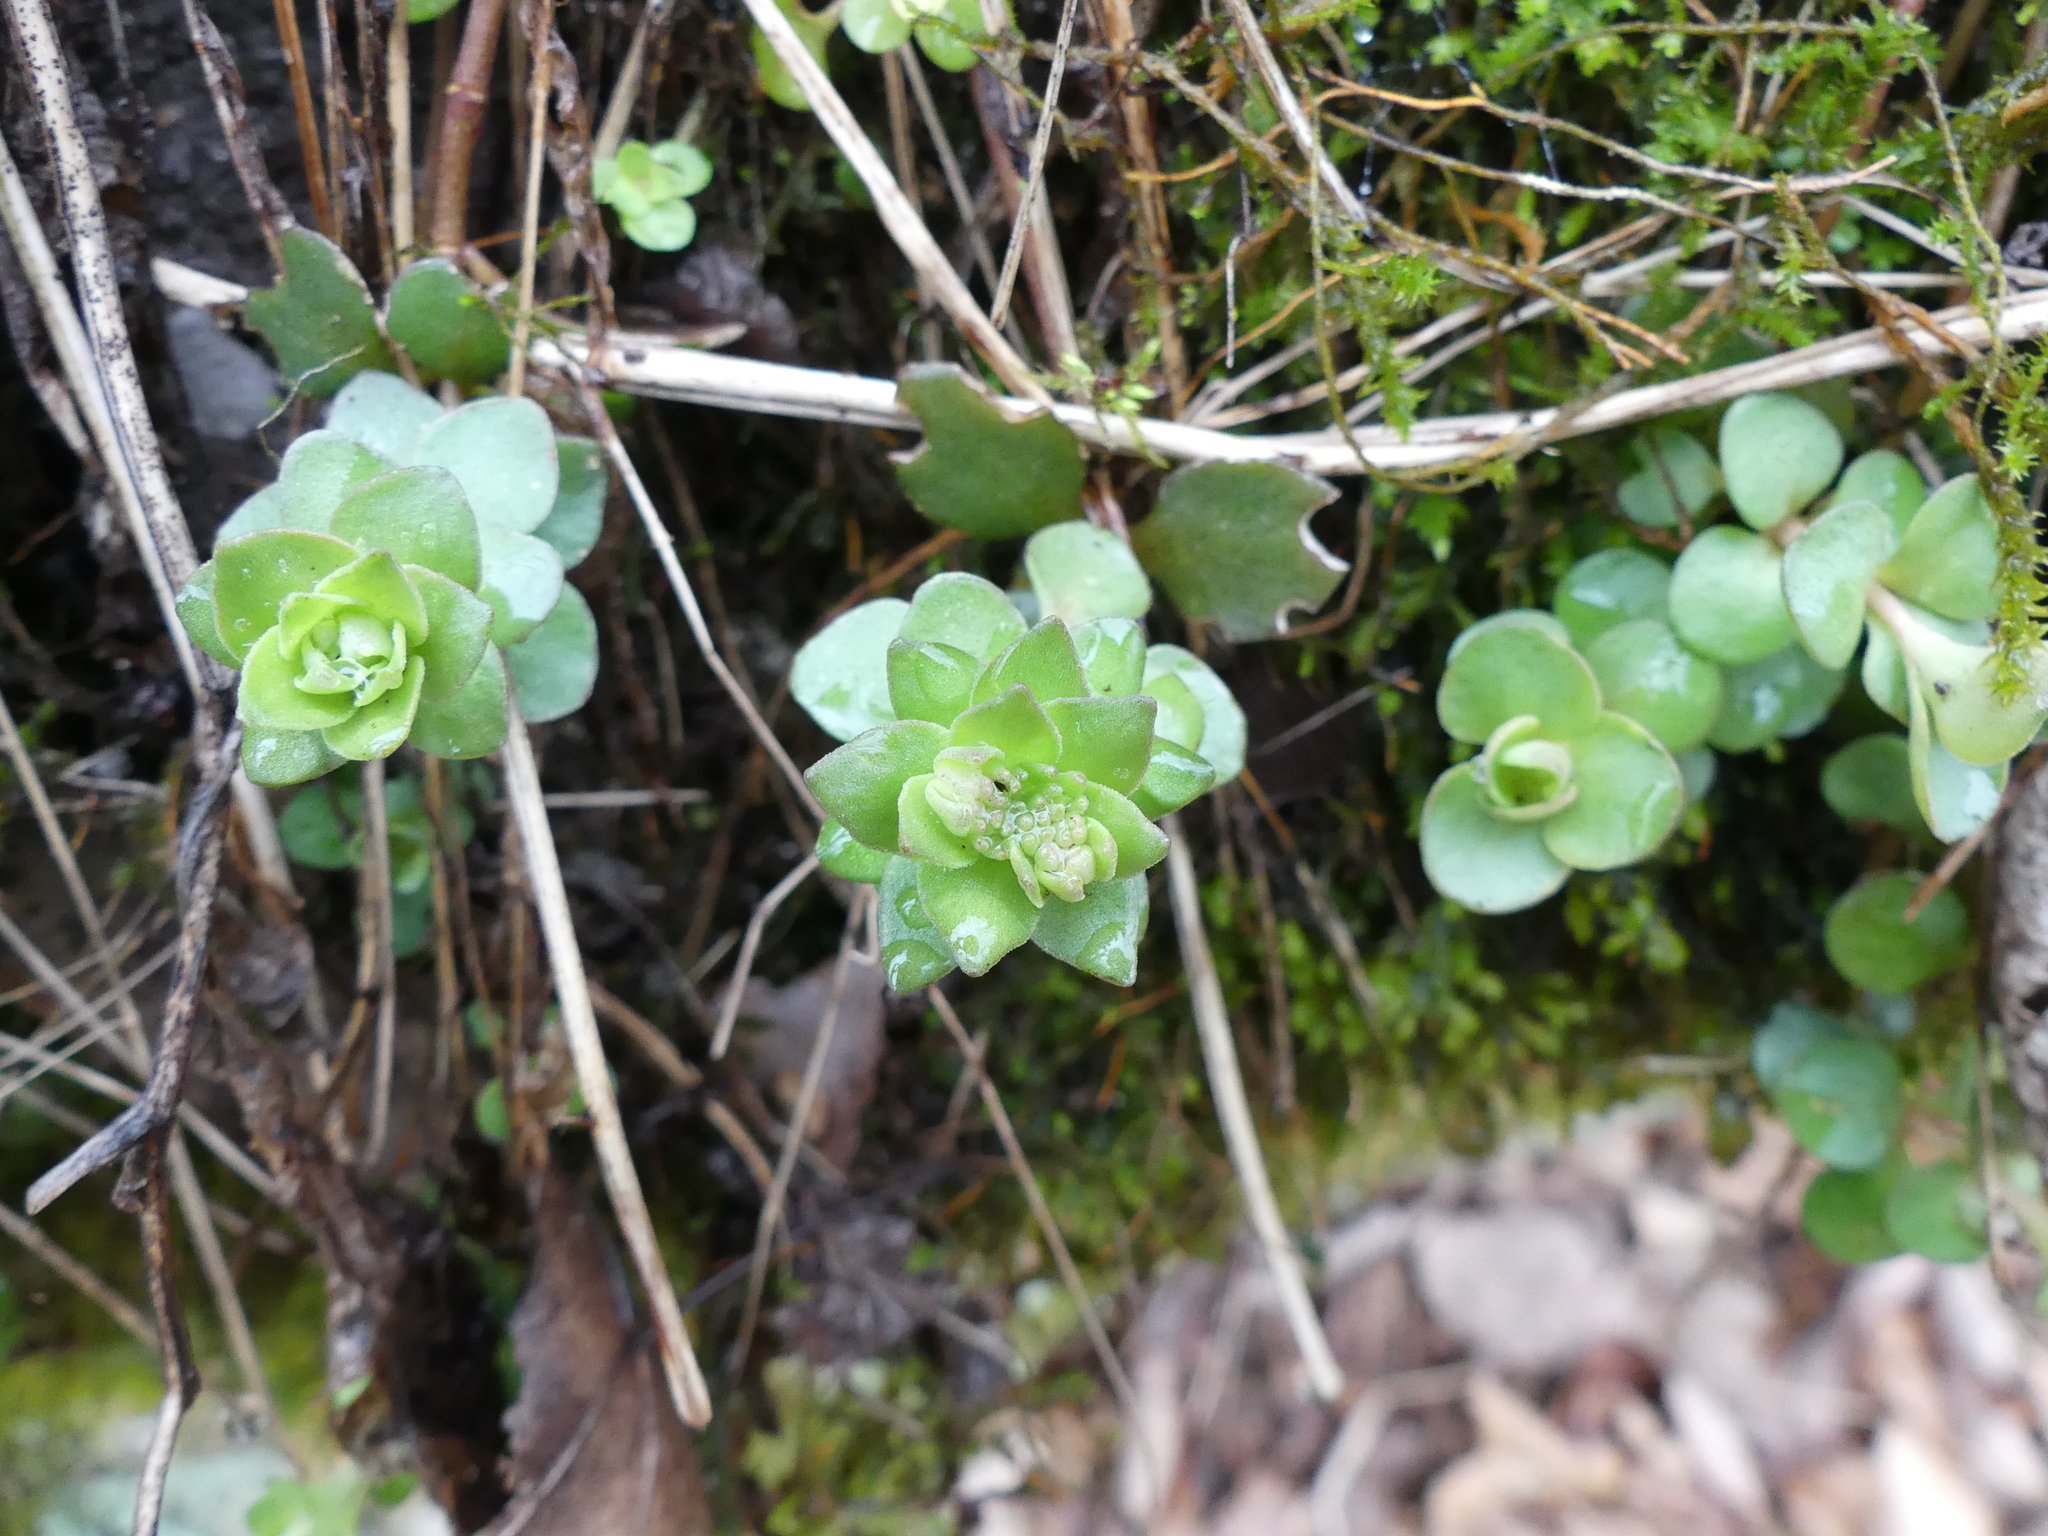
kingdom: Plantae
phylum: Tracheophyta
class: Magnoliopsida
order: Saxifragales
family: Crassulaceae
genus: Sedum
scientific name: Sedum ternatum
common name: Wild stonecrop
